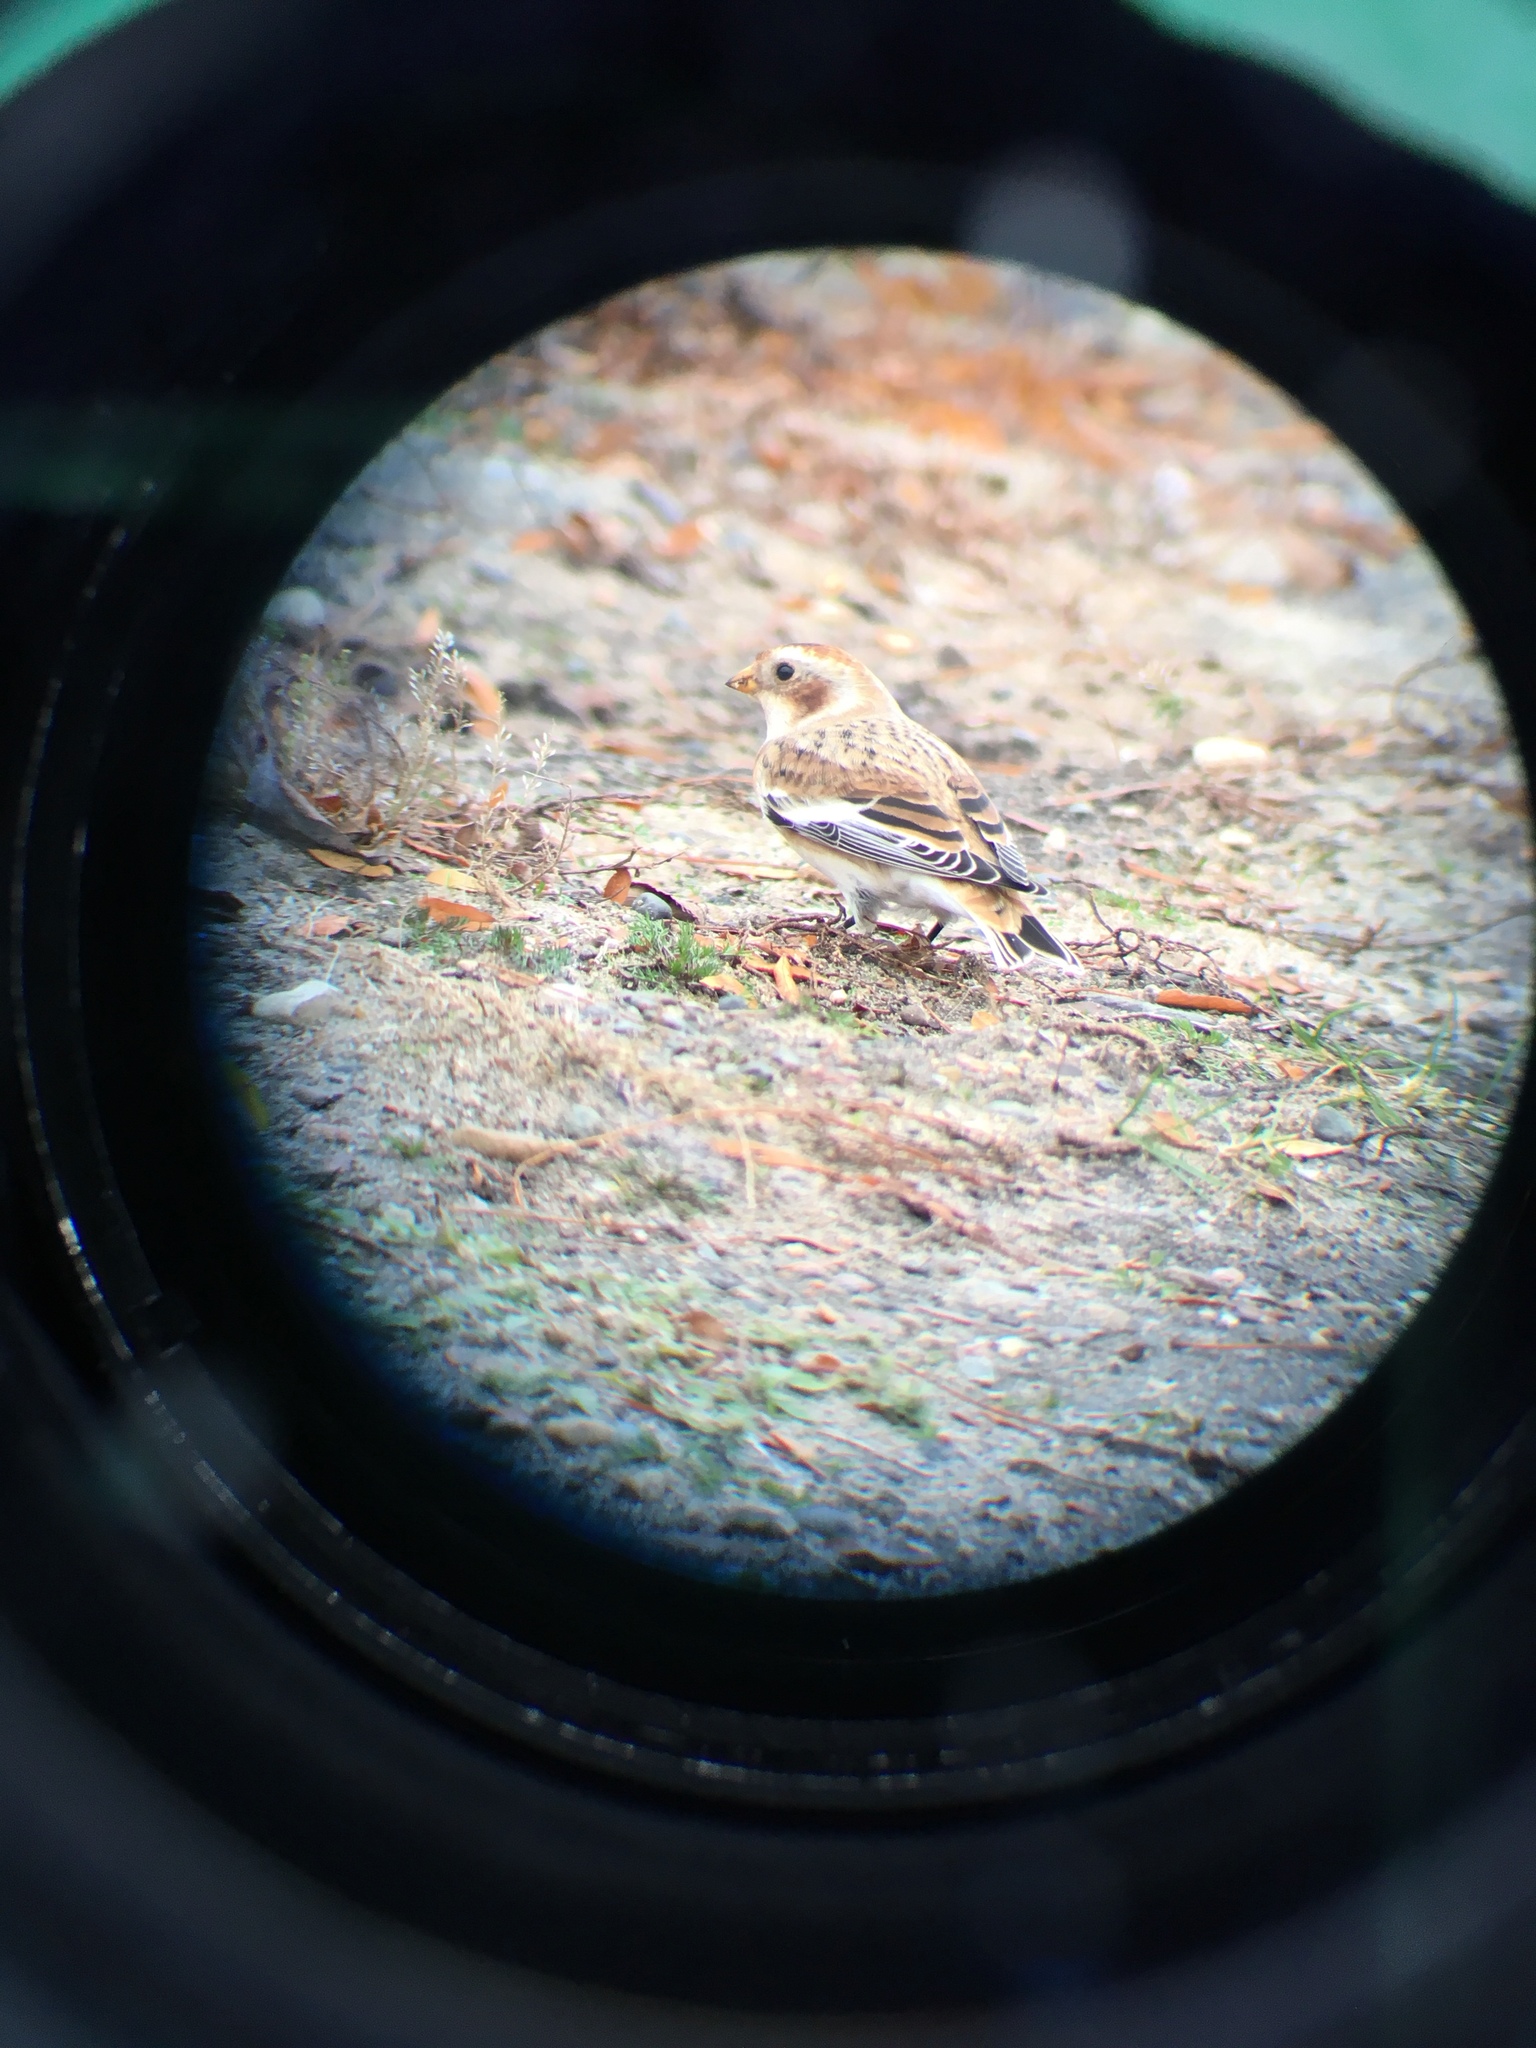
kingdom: Animalia
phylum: Chordata
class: Aves
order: Passeriformes
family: Calcariidae
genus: Plectrophenax
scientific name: Plectrophenax nivalis
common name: Snow bunting
